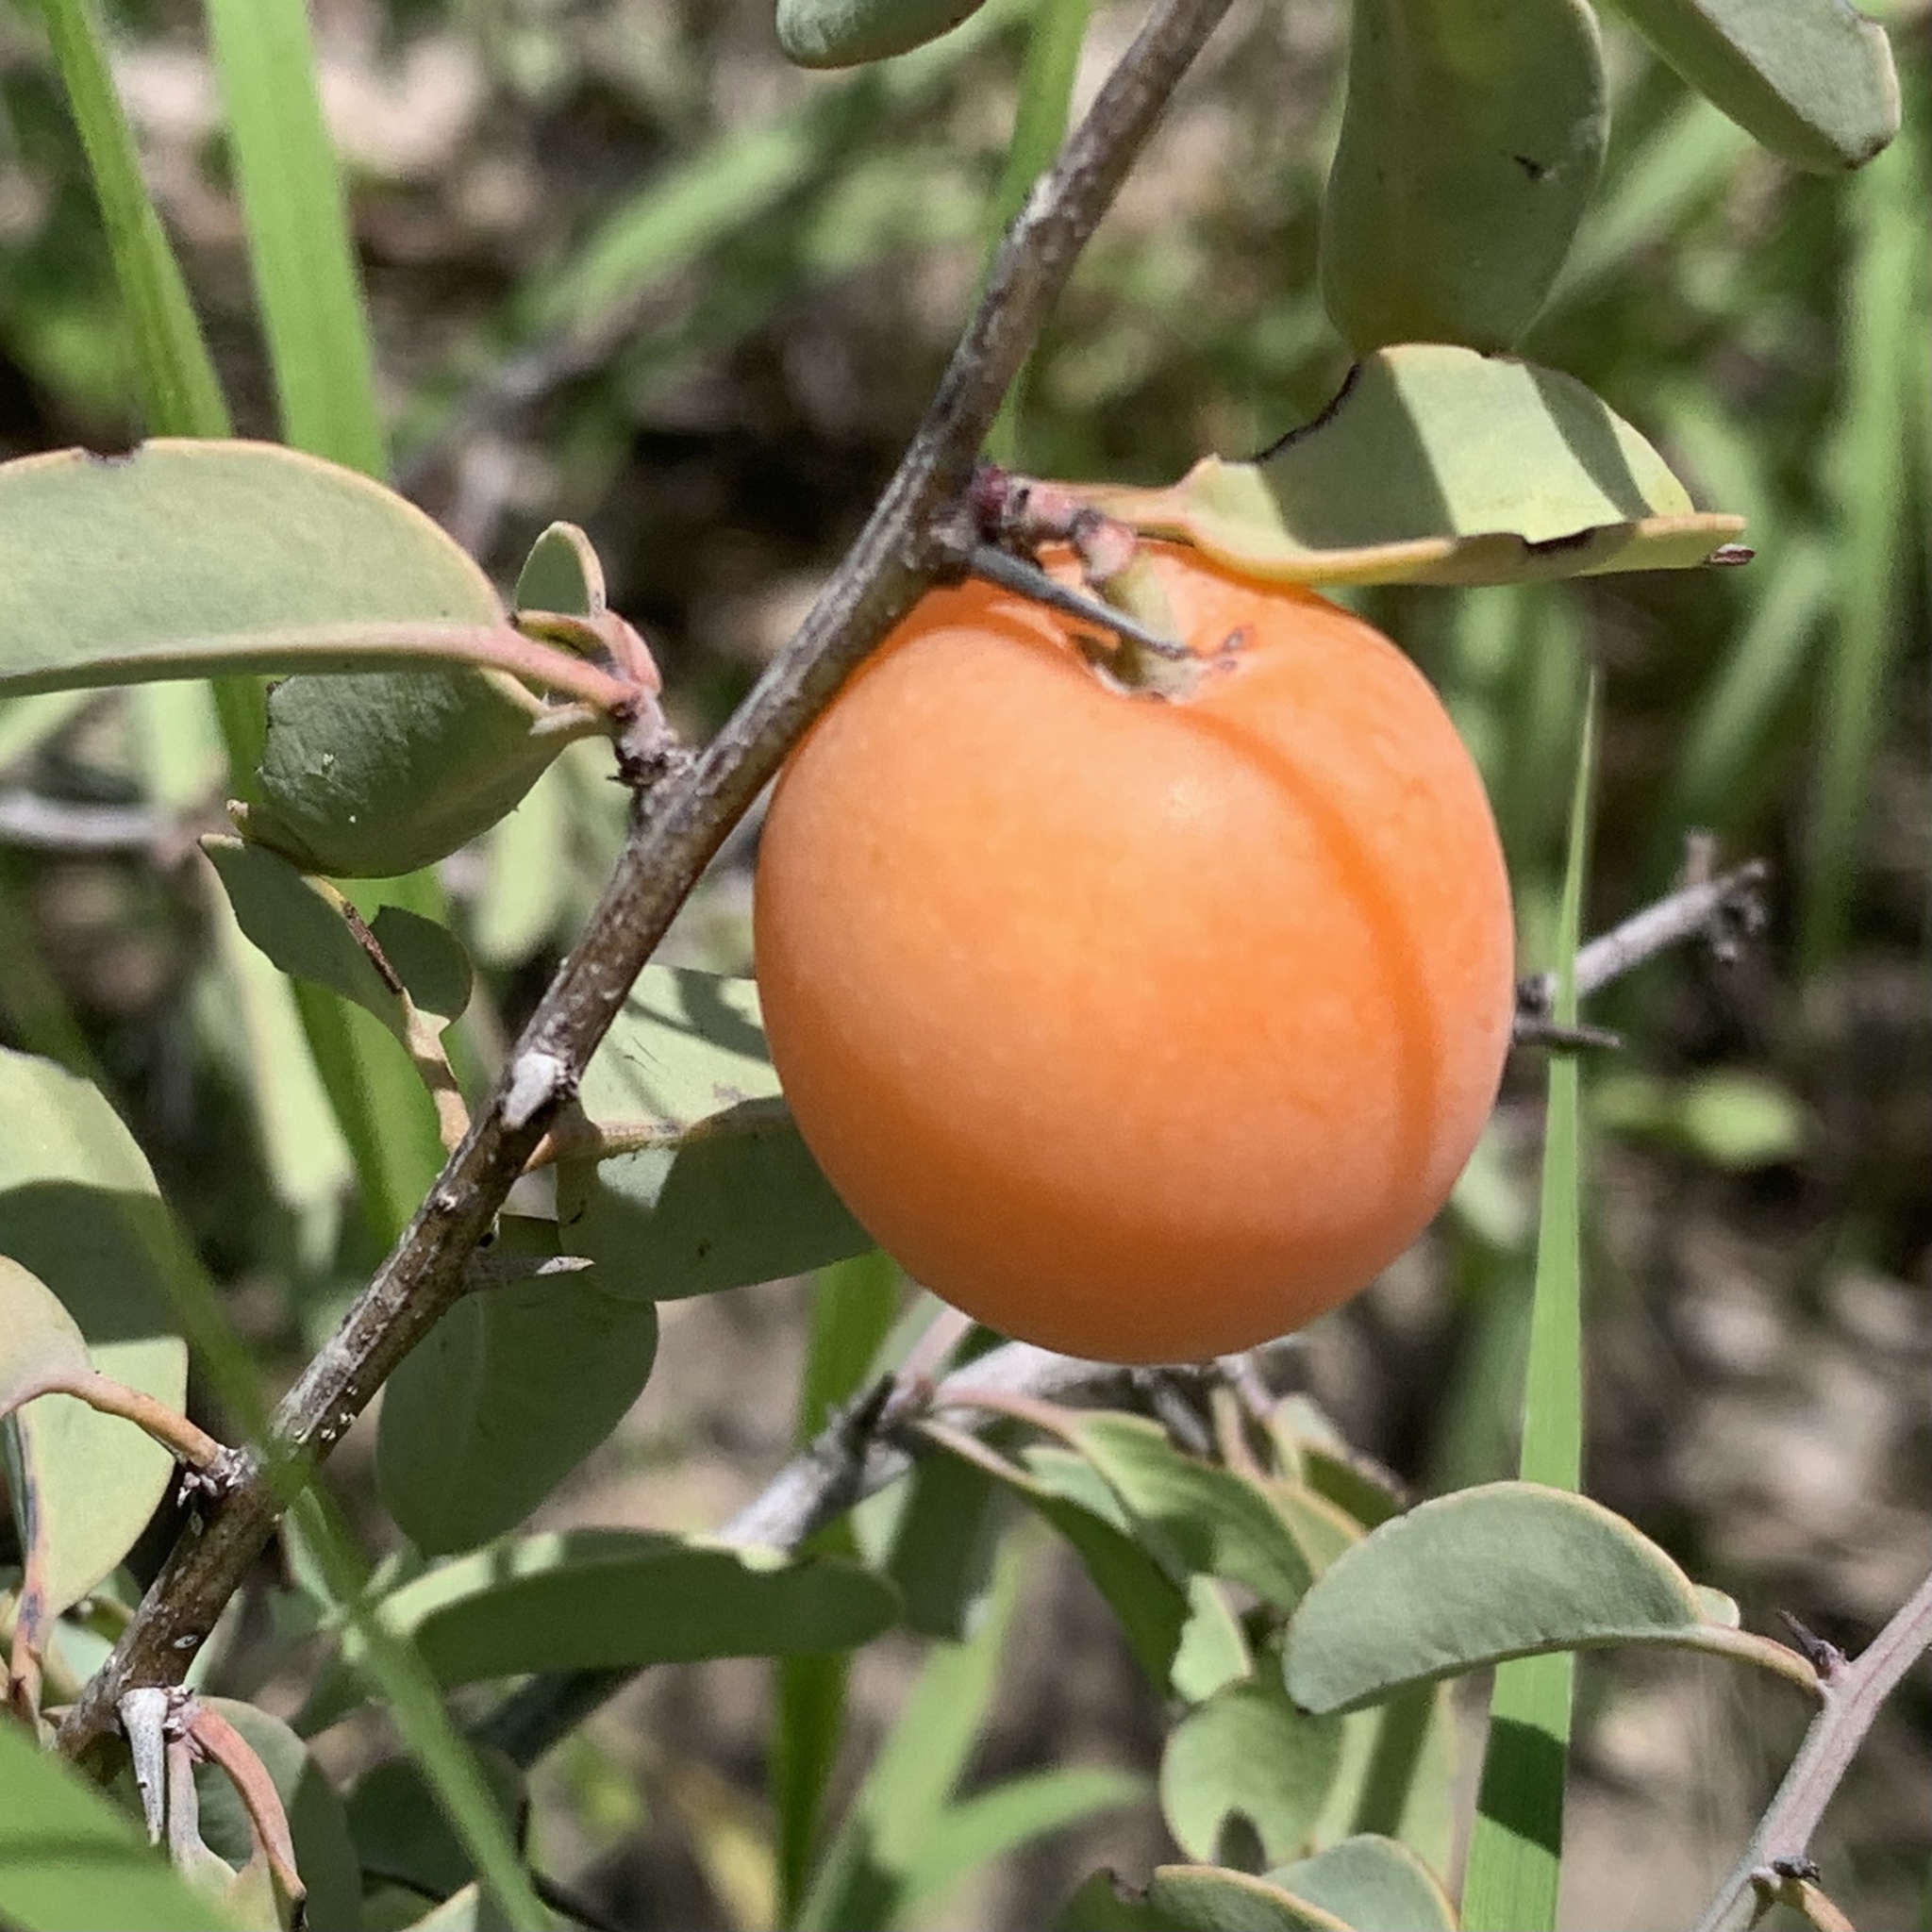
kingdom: Plantae
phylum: Tracheophyta
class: Magnoliopsida
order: Santalales
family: Ximeniaceae
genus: Ximenia
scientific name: Ximenia caffra
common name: Large sourplum
